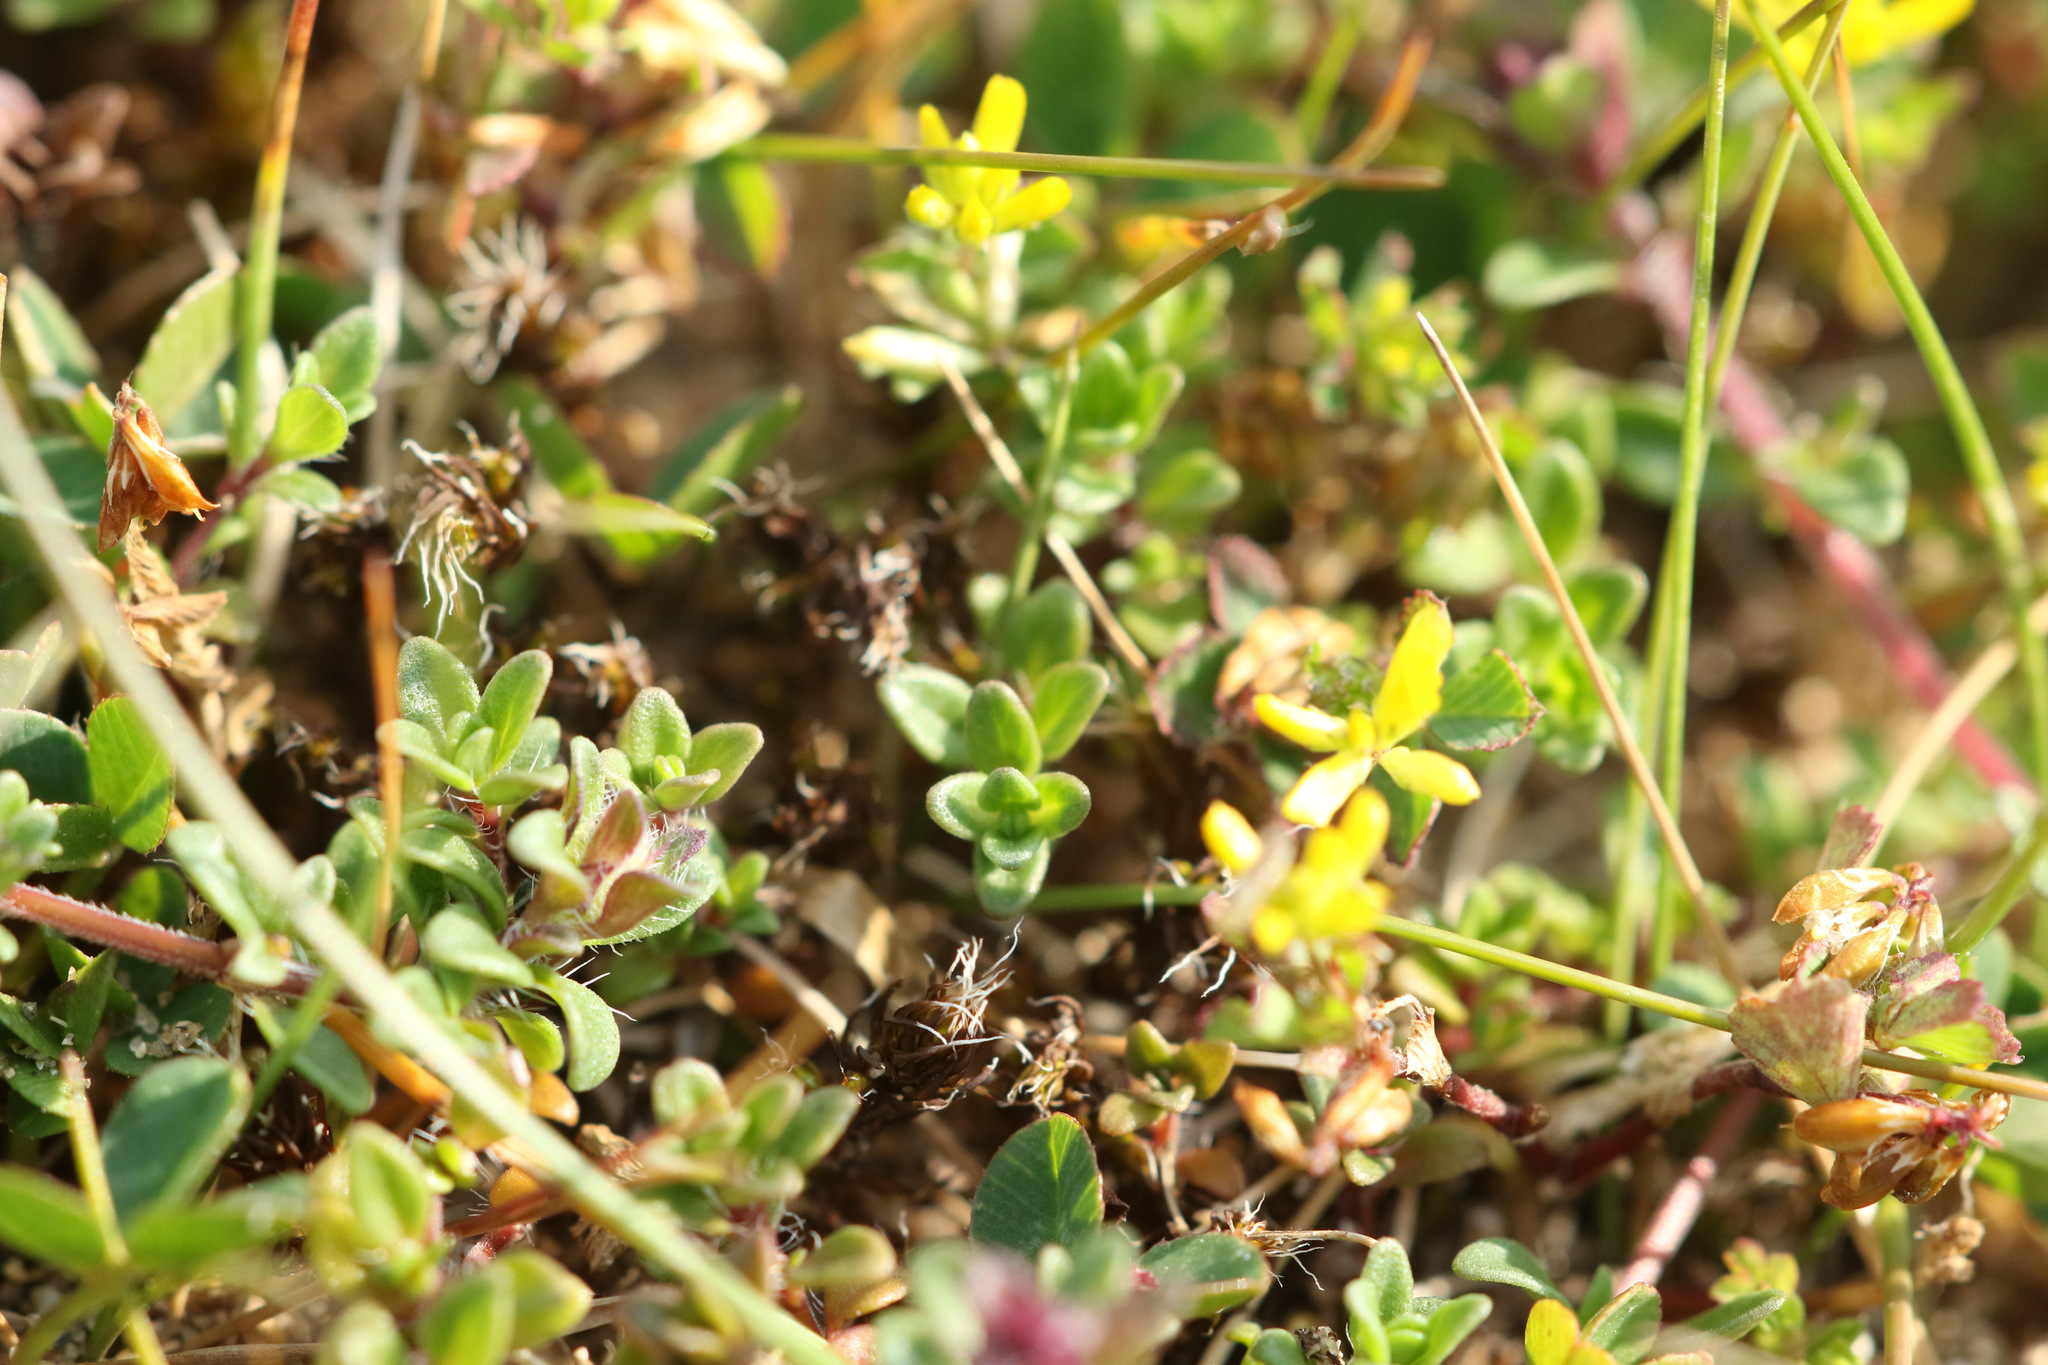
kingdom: Plantae
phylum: Tracheophyta
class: Magnoliopsida
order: Fabales
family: Fabaceae
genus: Trifolium
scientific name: Trifolium dubium
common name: Suckling clover
